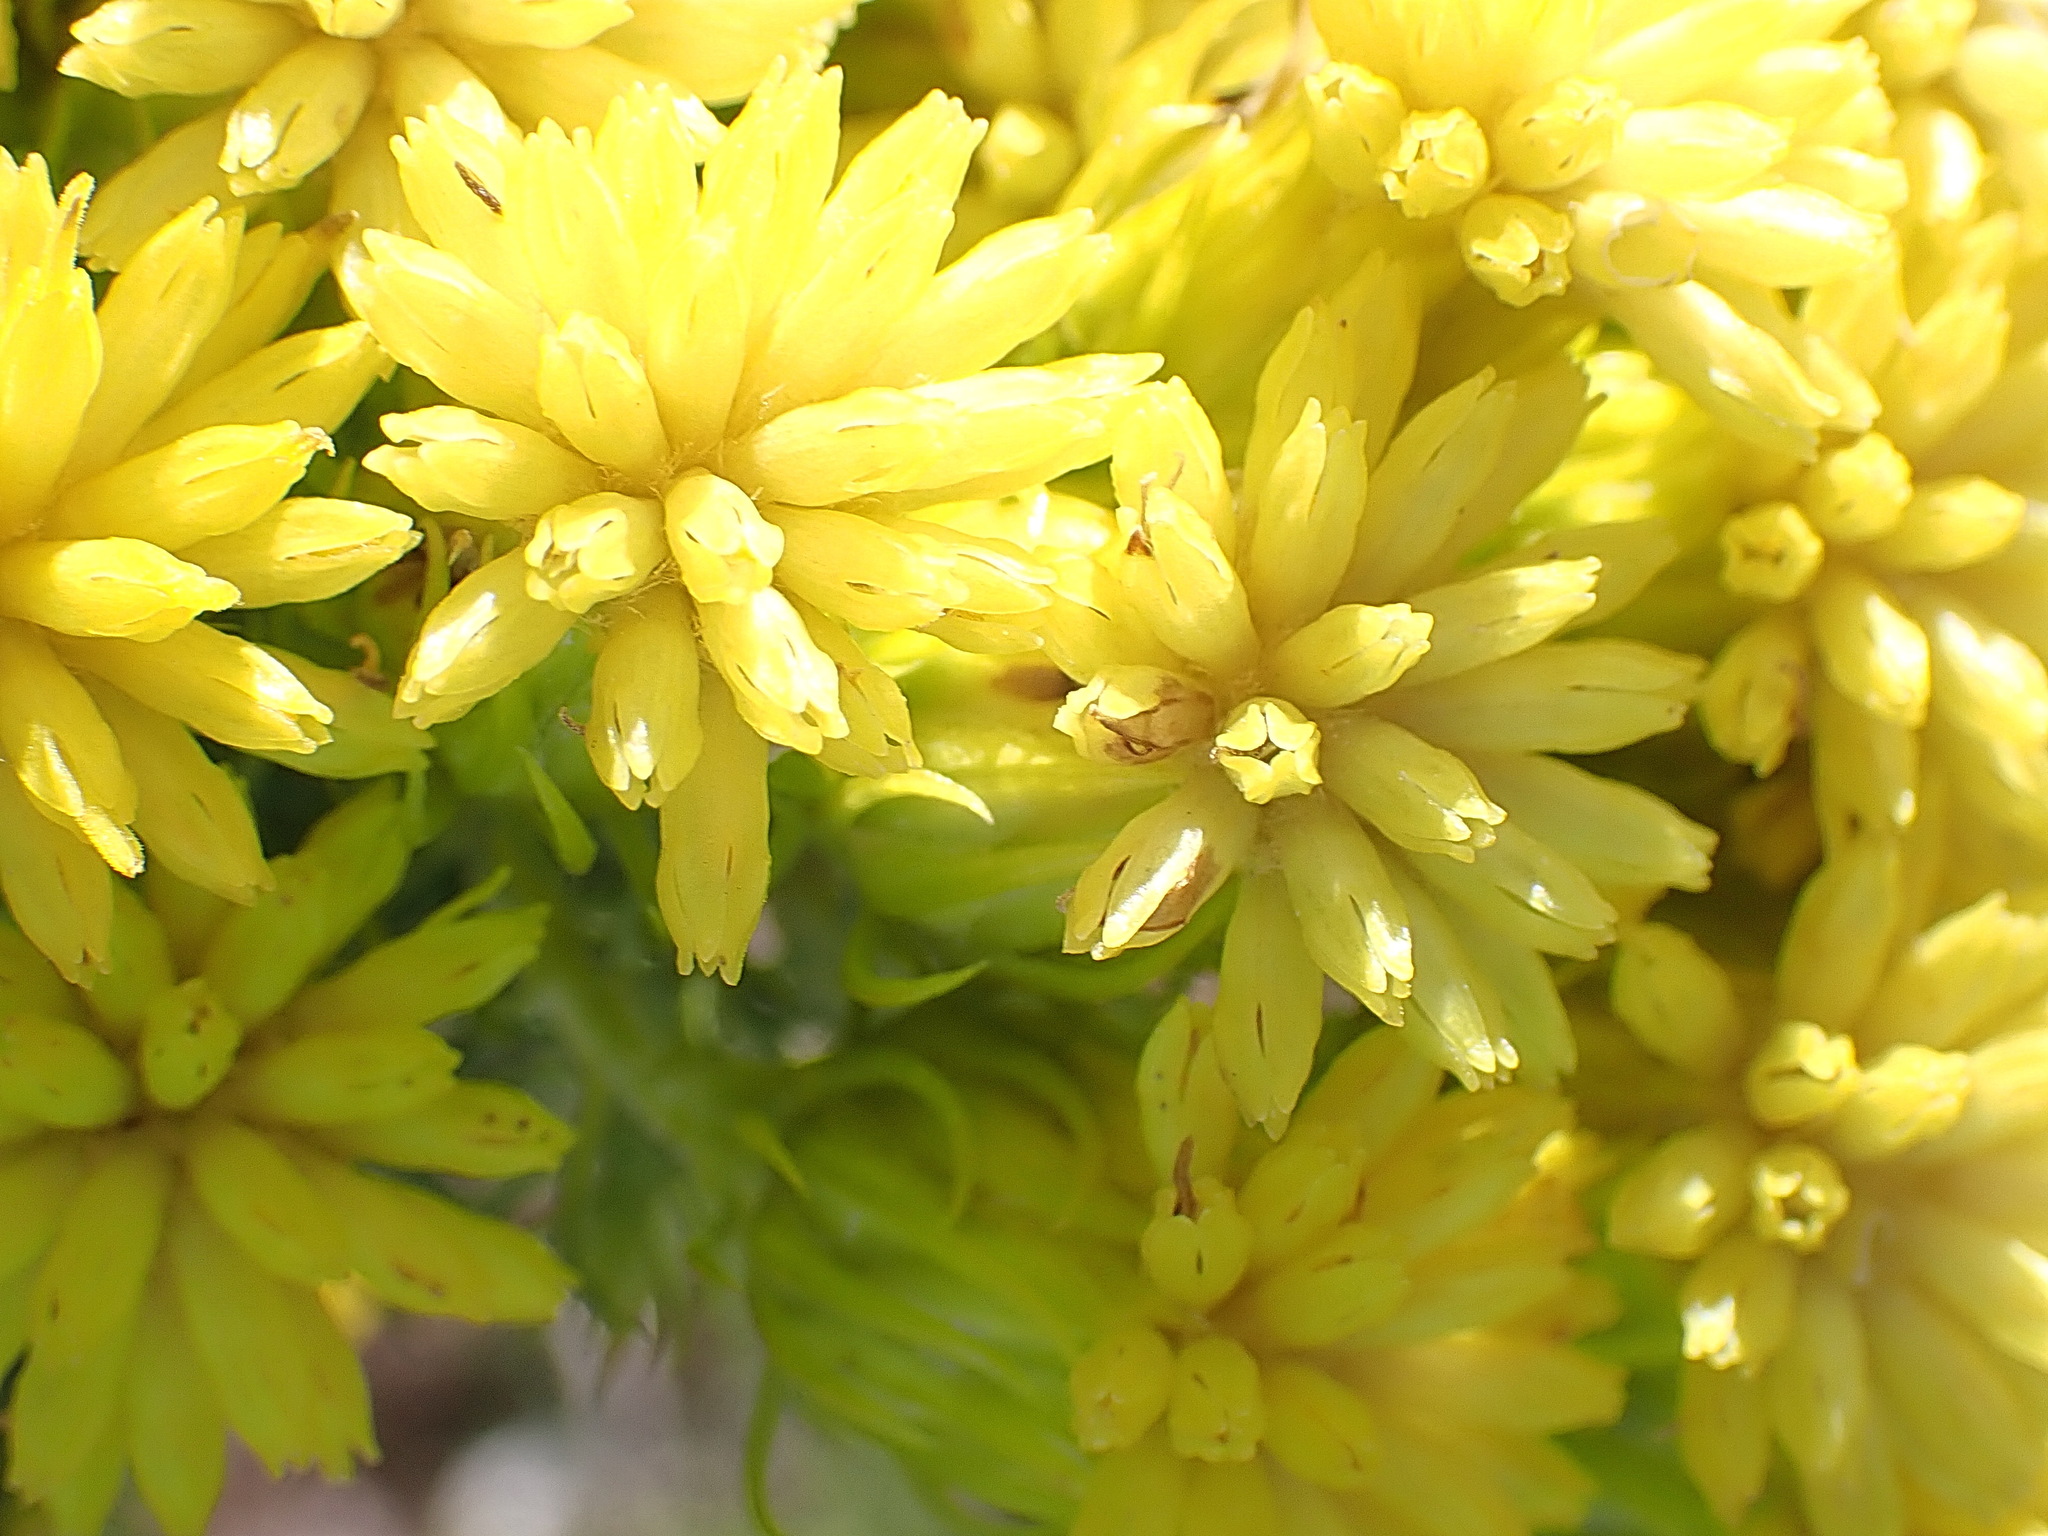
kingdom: Plantae
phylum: Tracheophyta
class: Magnoliopsida
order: Asterales
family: Asteraceae
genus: Pteronia
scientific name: Pteronia camphorata
